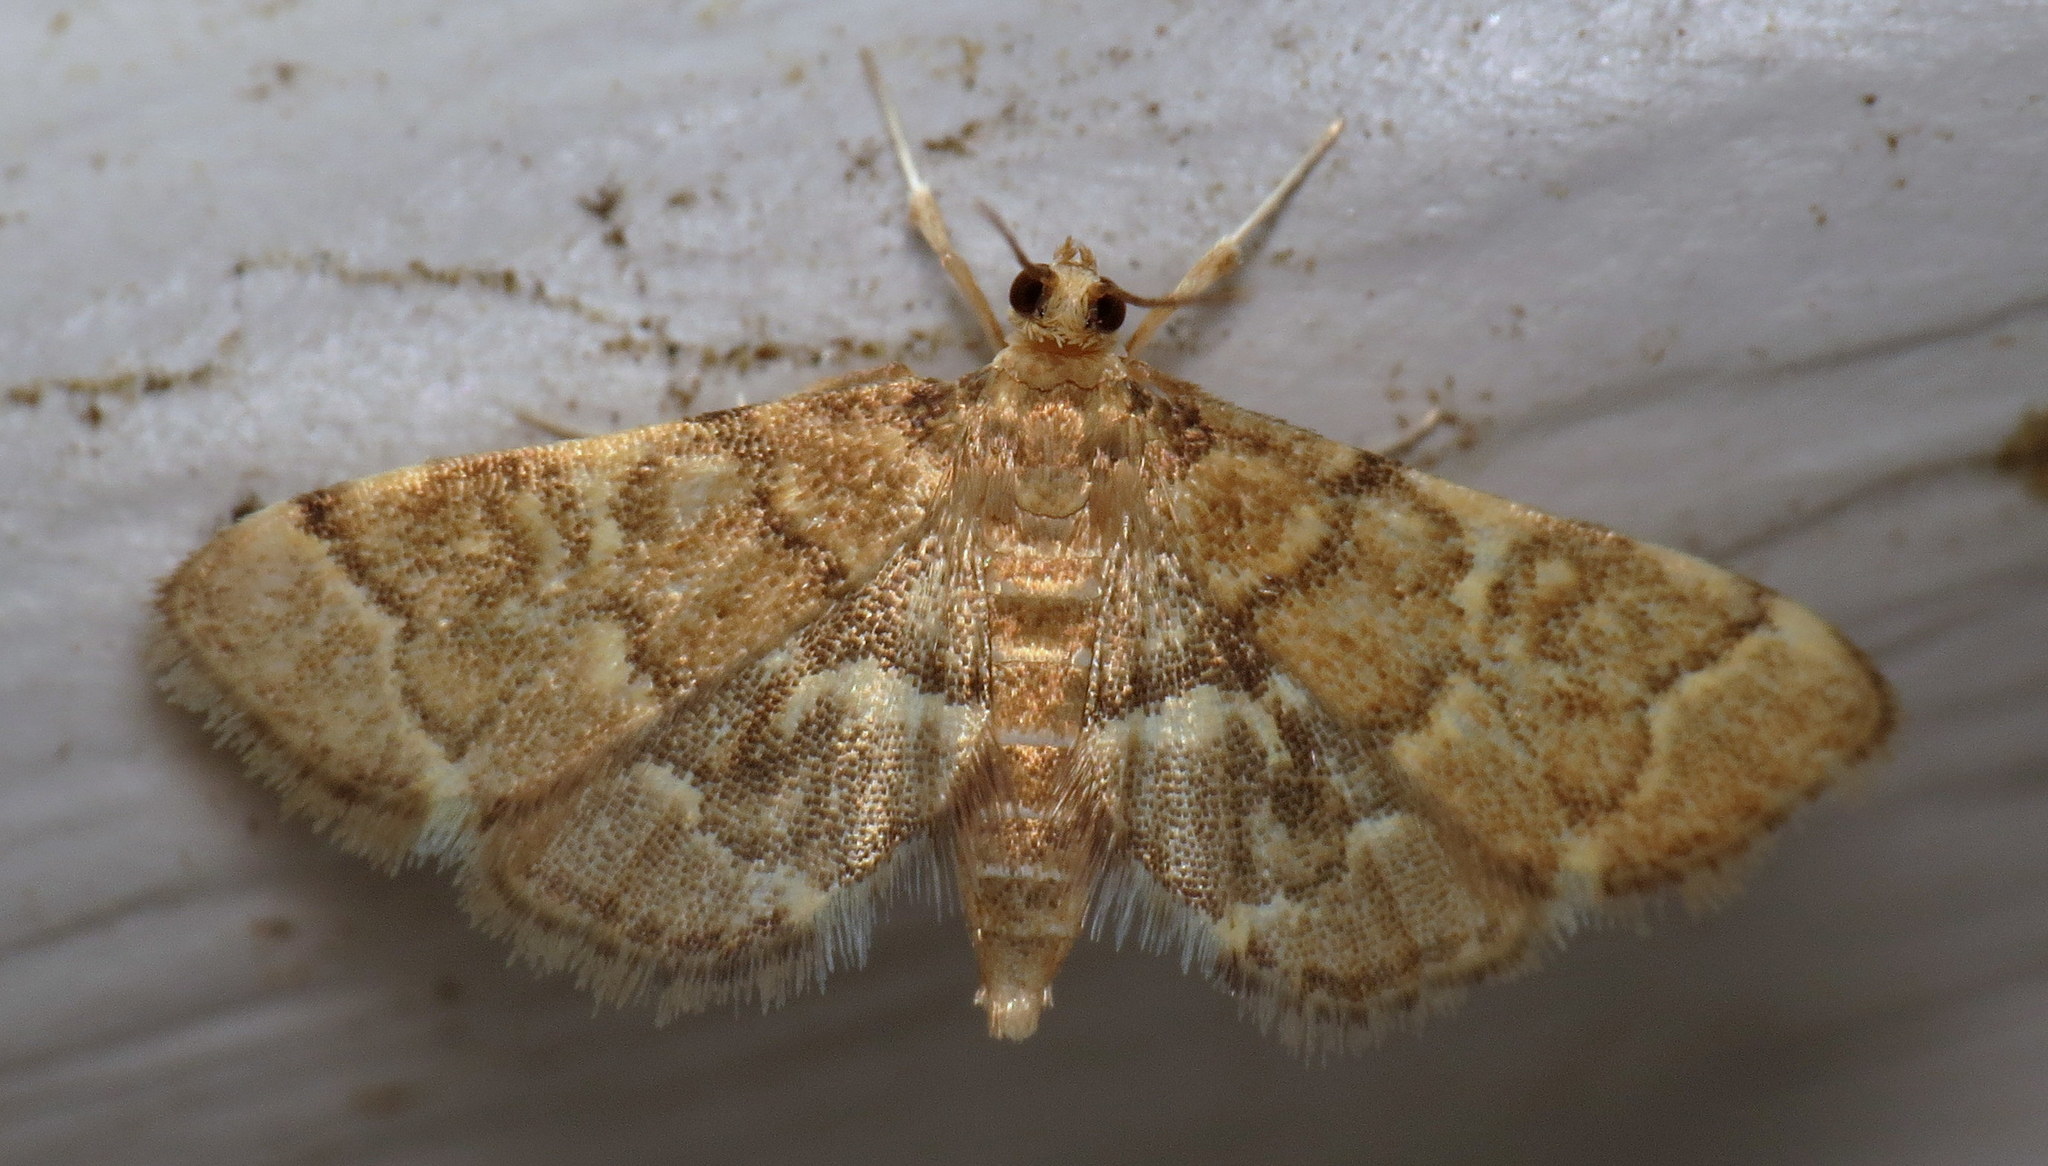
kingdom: Animalia
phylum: Arthropoda
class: Insecta
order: Lepidoptera
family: Crambidae
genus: Anageshna
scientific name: Anageshna primordialis
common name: Yellow-spotted webworm moth
